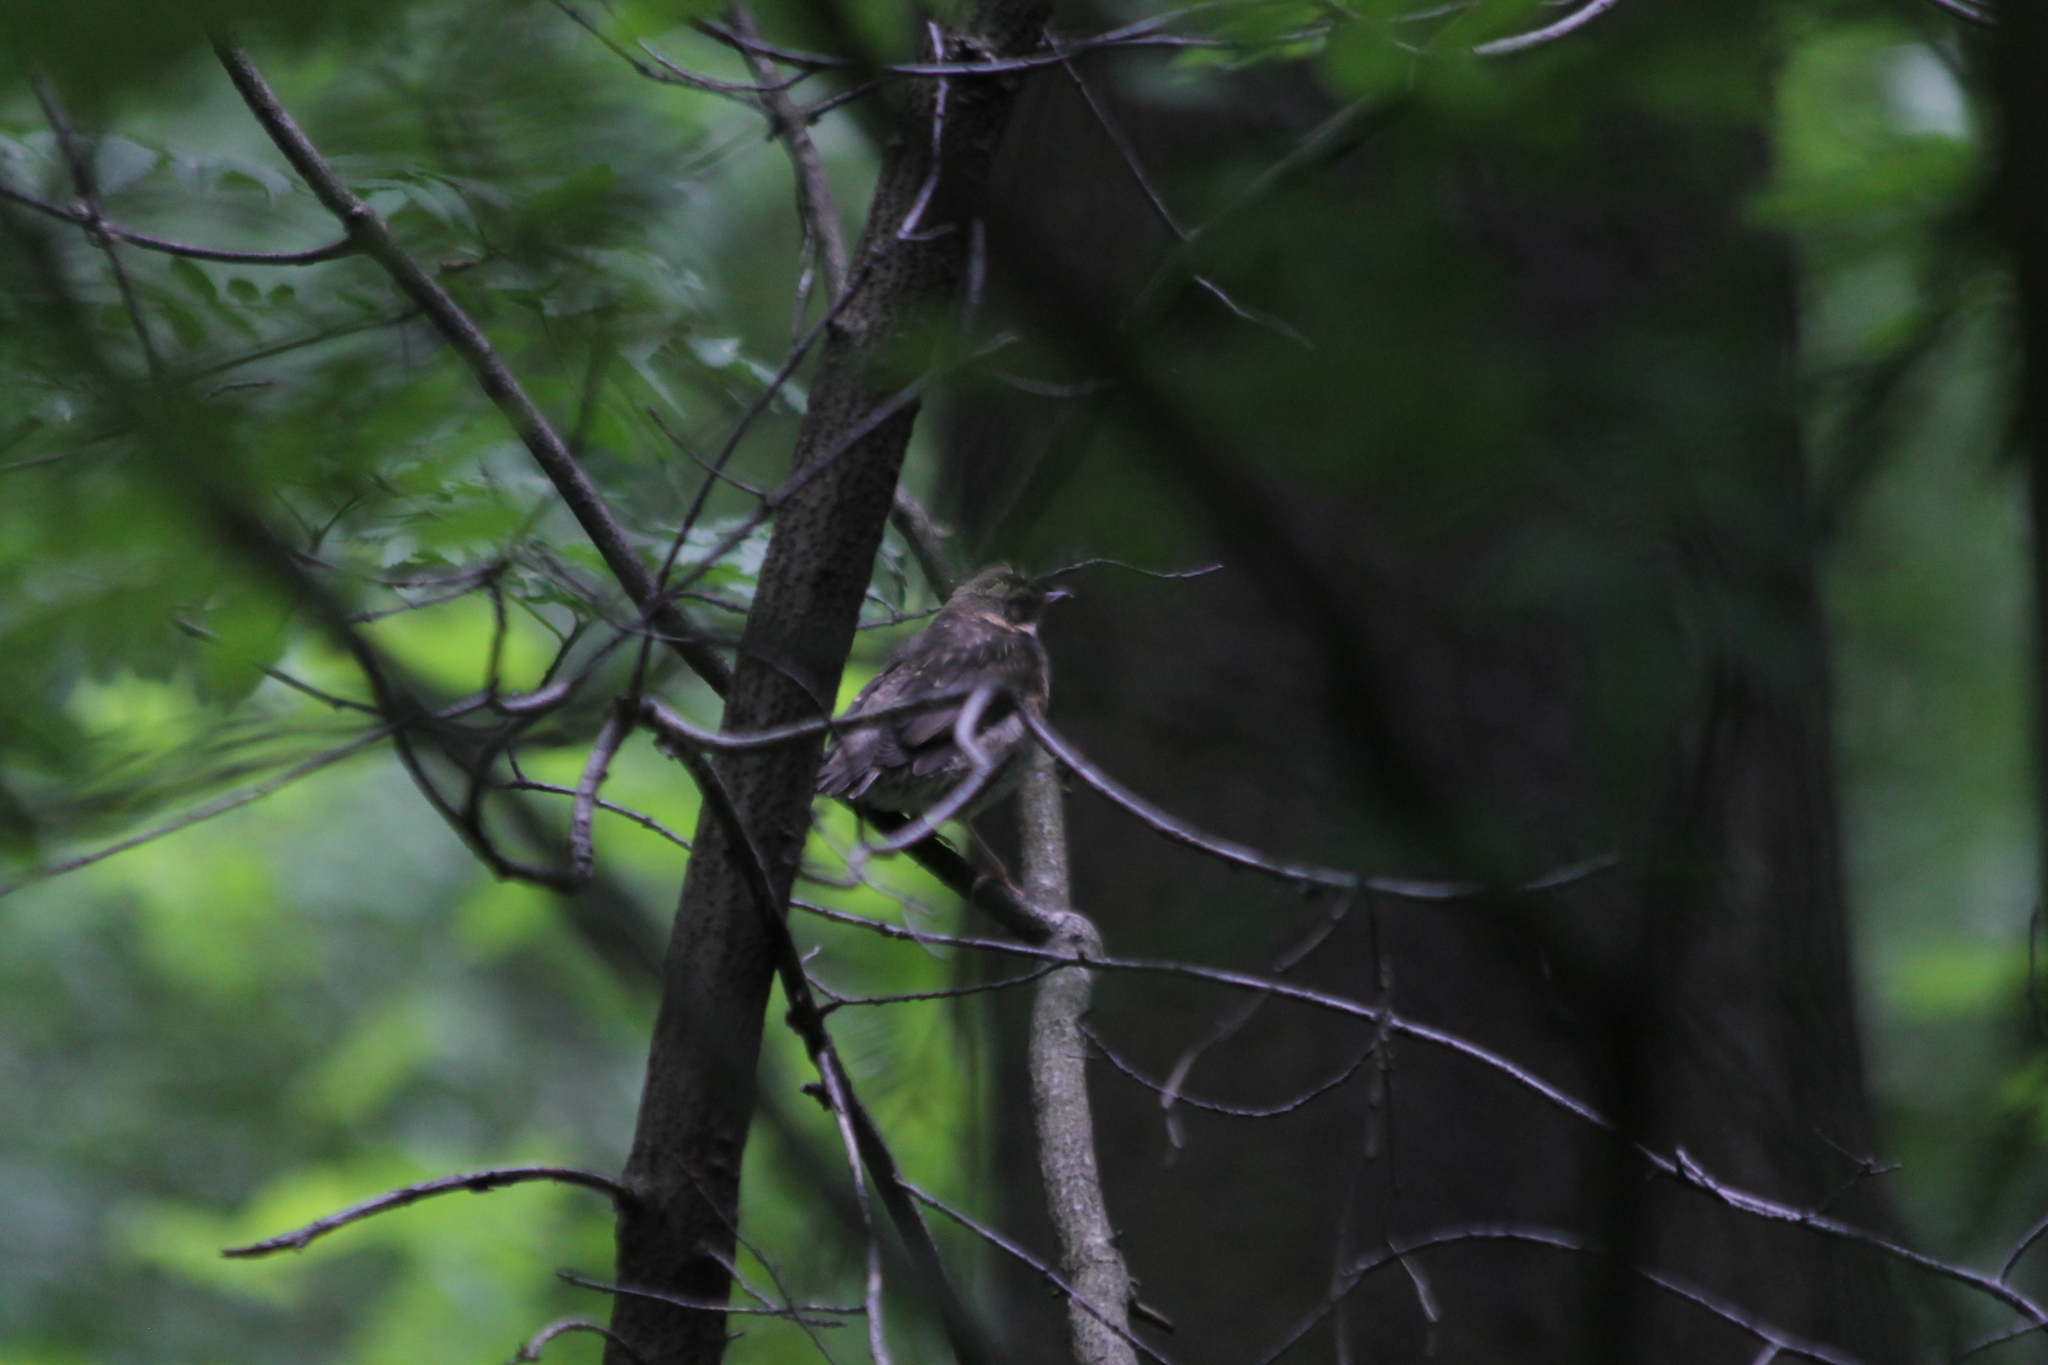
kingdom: Animalia
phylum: Chordata
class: Aves
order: Passeriformes
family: Turdidae
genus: Turdus
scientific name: Turdus iliacus
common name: Redwing
